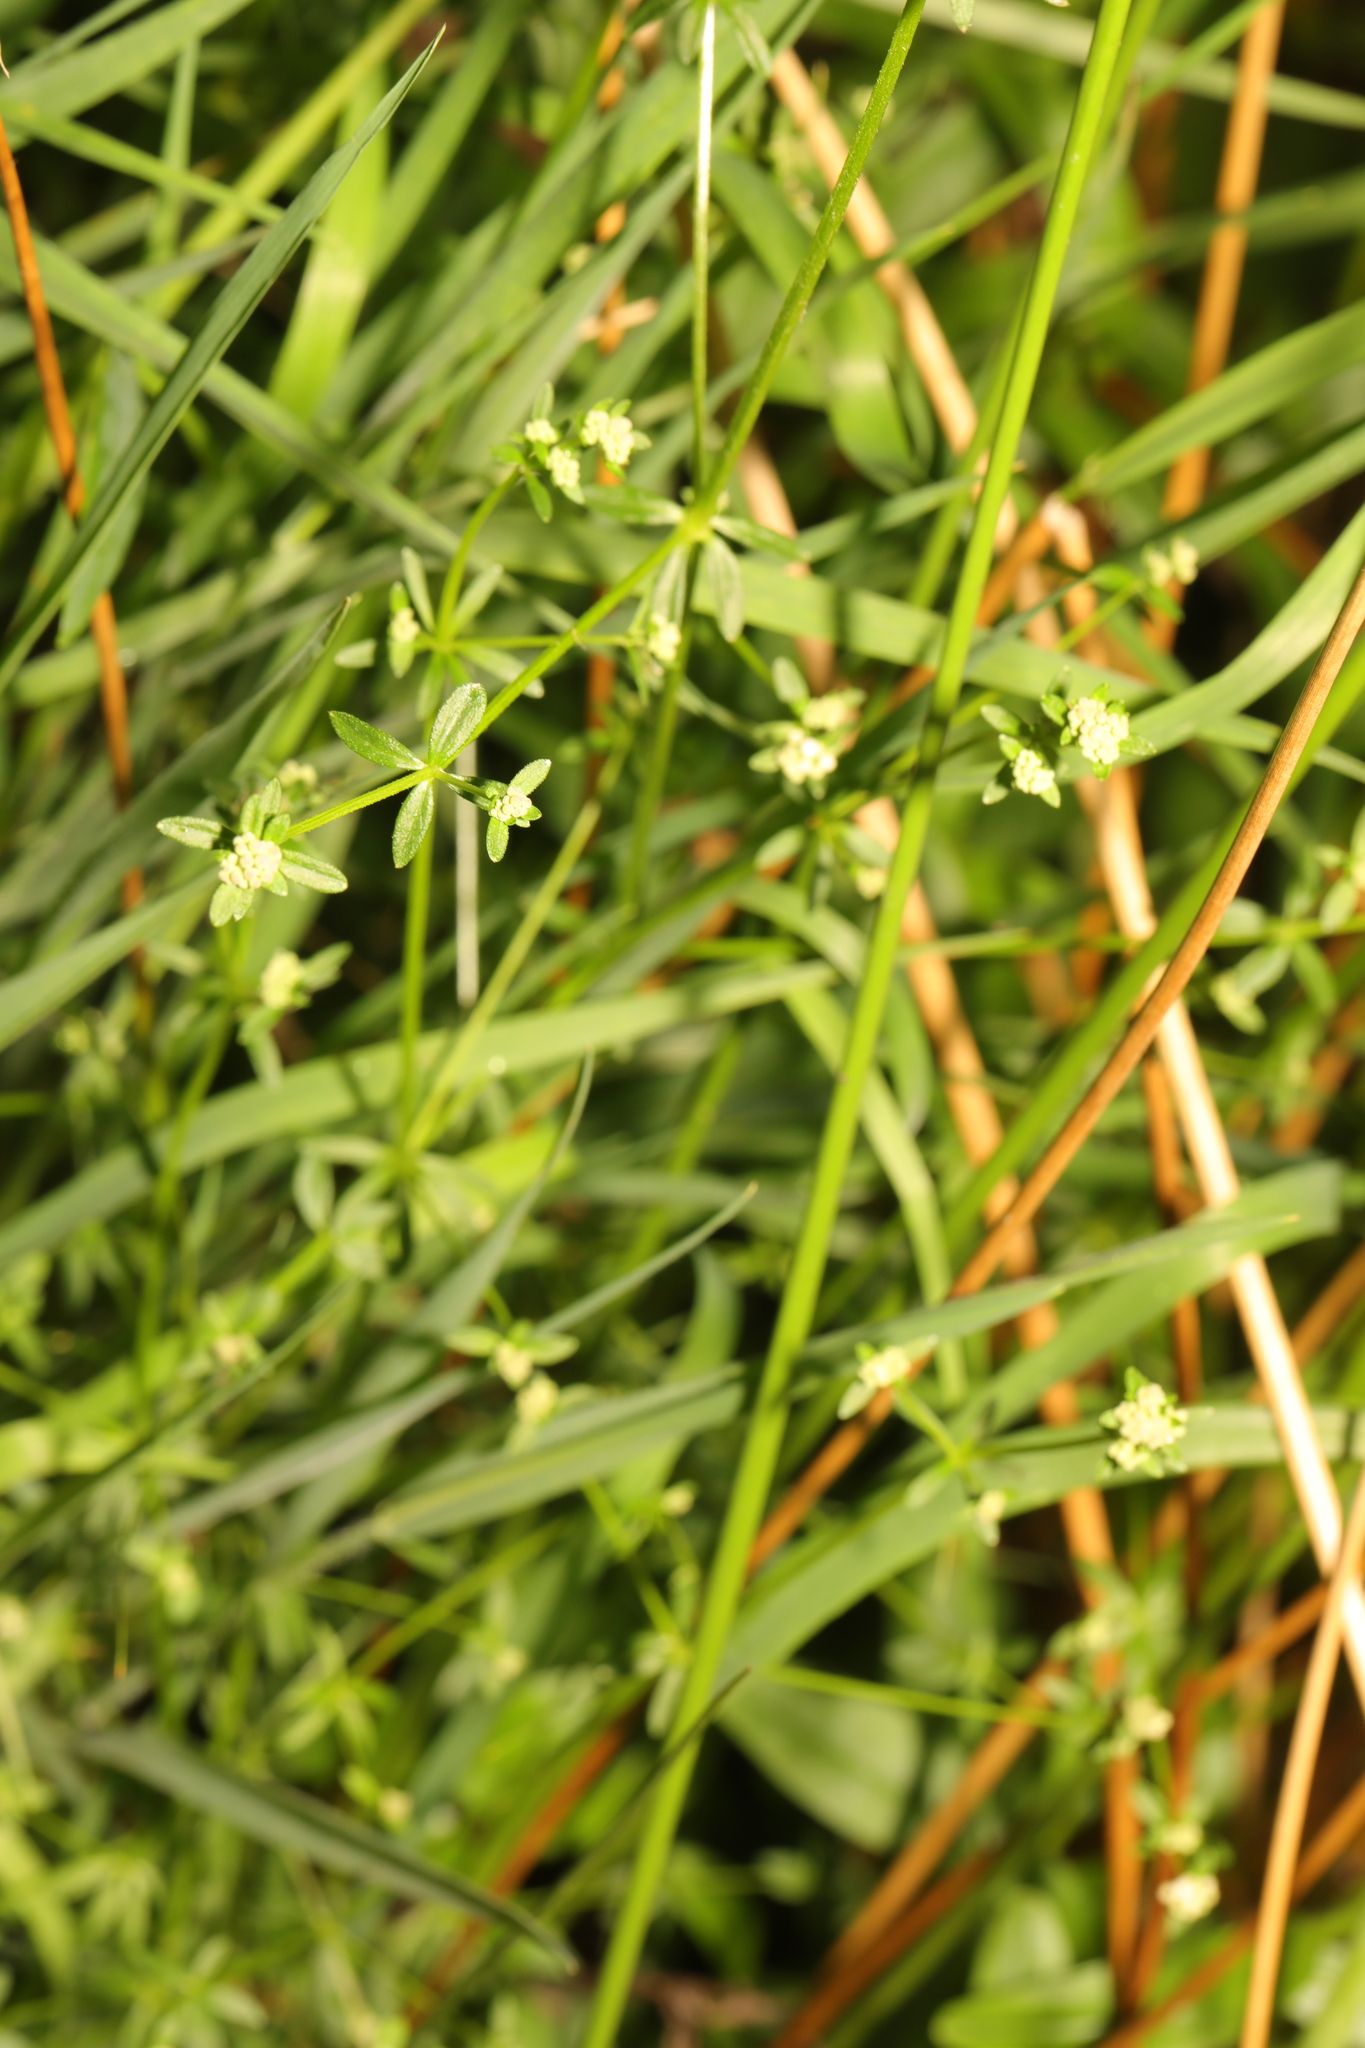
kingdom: Plantae
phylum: Tracheophyta
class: Magnoliopsida
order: Gentianales
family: Rubiaceae
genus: Galium
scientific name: Galium palustre
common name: Common marsh-bedstraw
